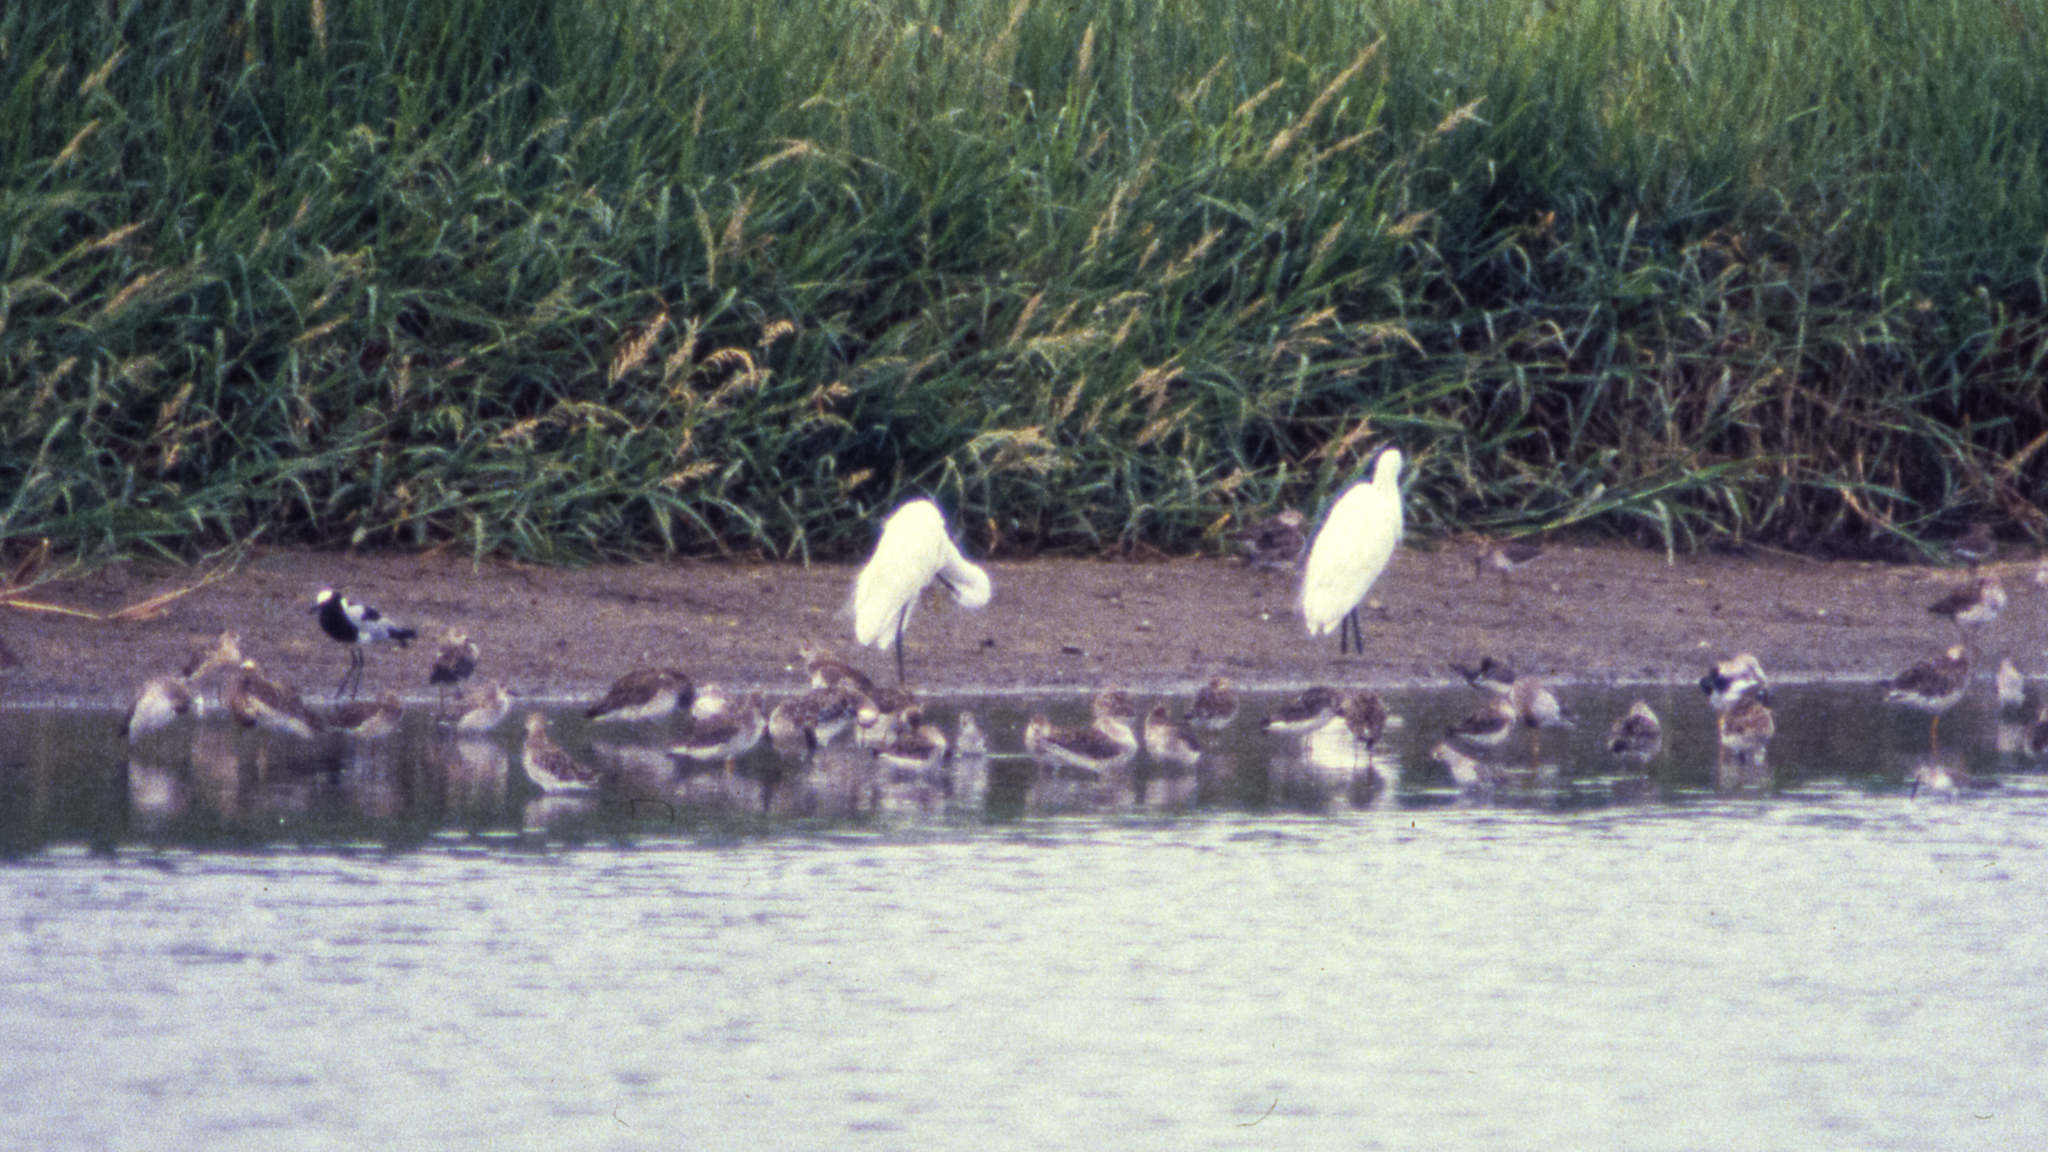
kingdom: Animalia
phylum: Chordata
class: Aves
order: Pelecaniformes
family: Ardeidae
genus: Egretta
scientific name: Egretta garzetta
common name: Little egret
